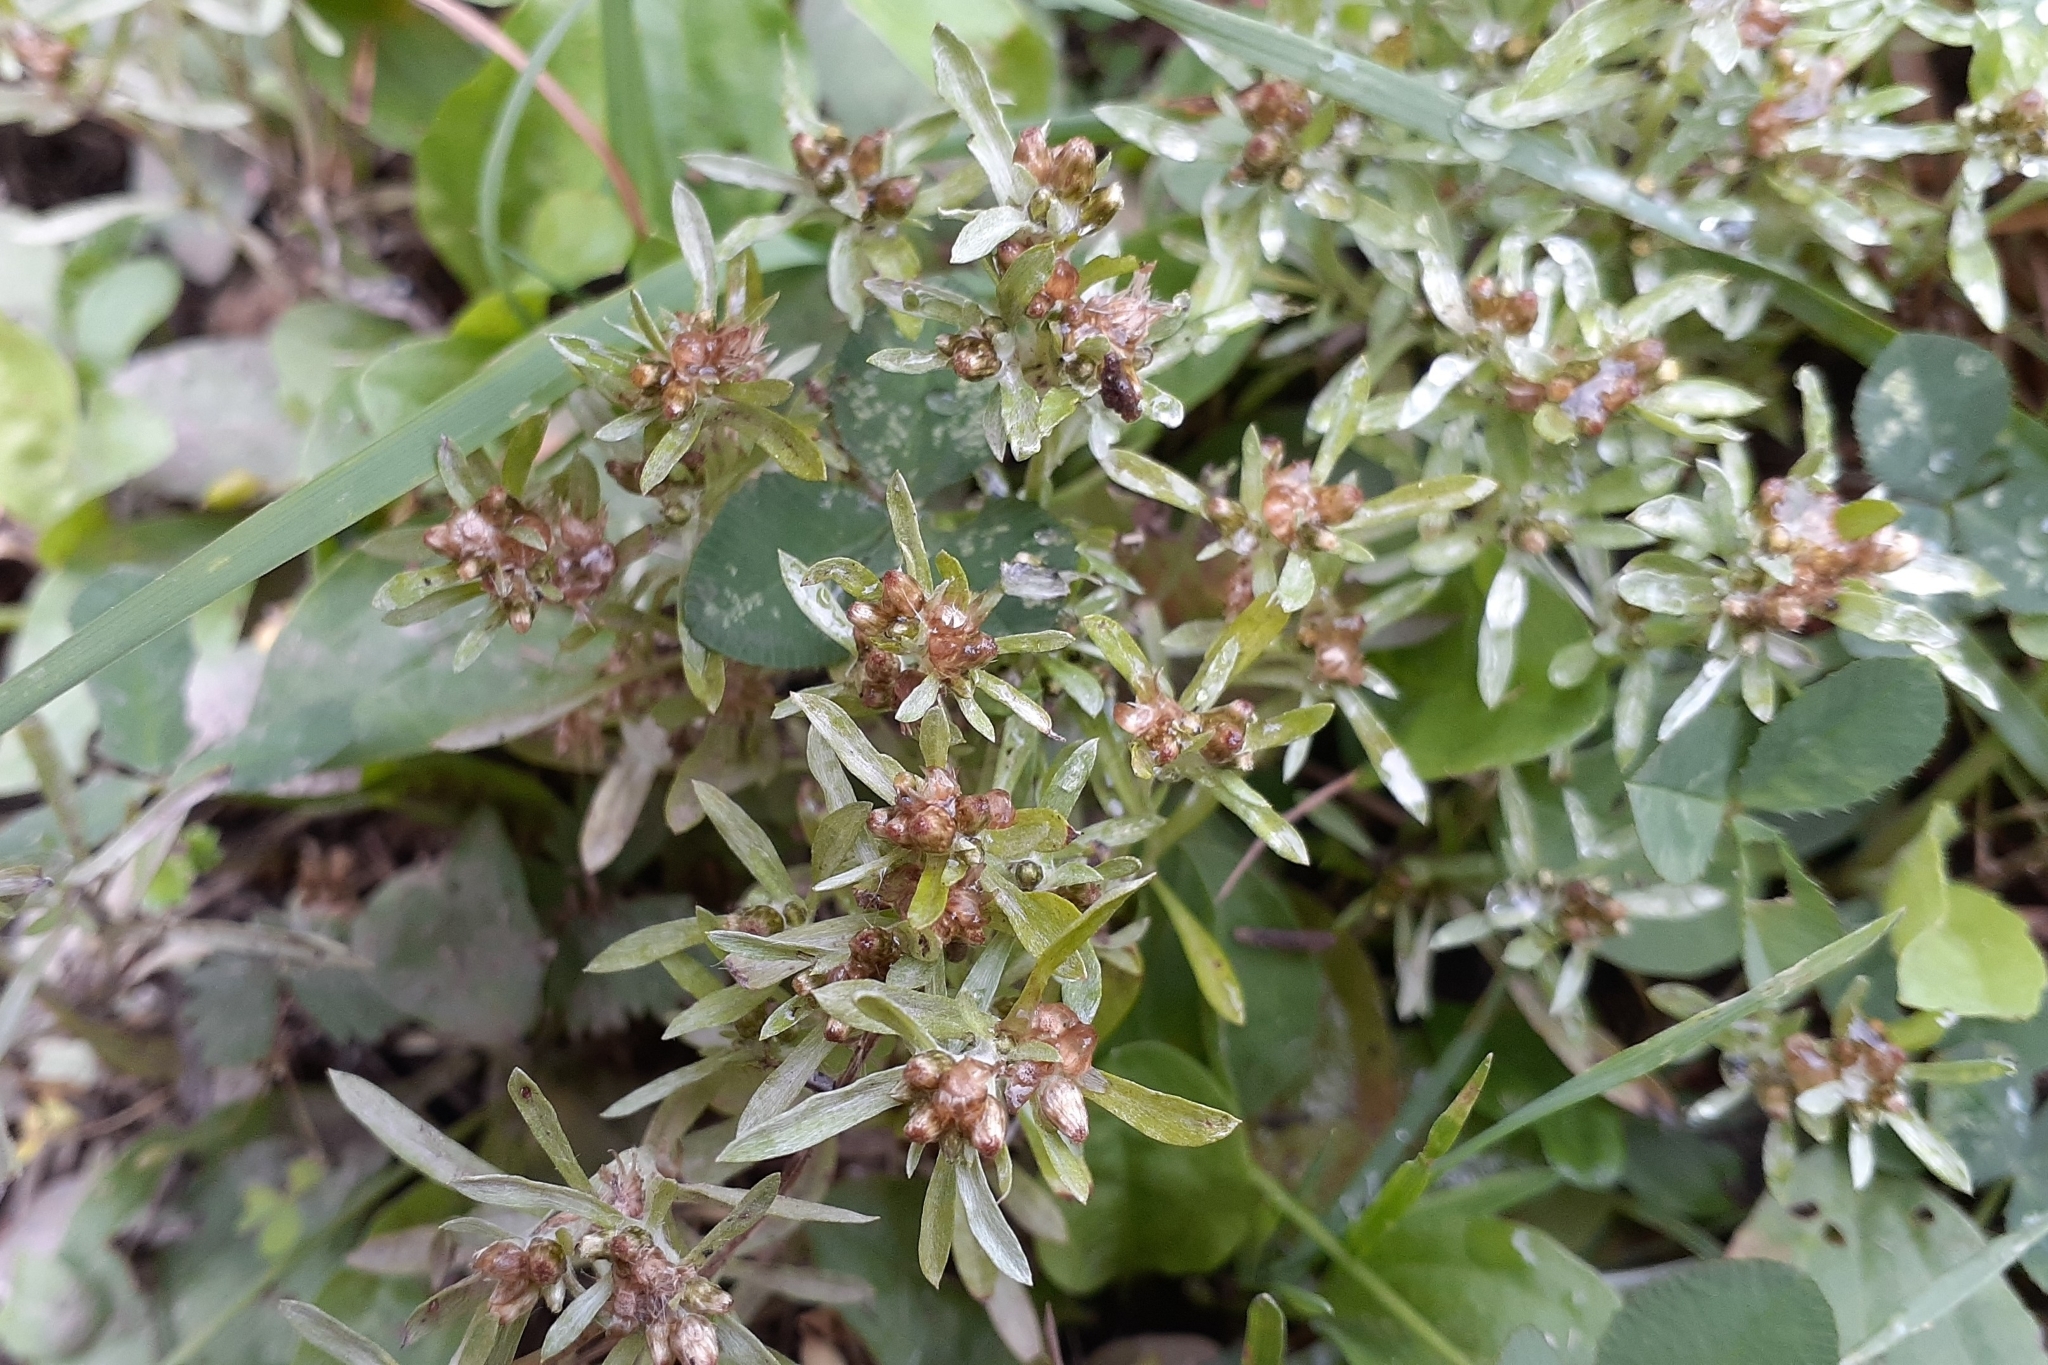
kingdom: Plantae
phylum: Tracheophyta
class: Magnoliopsida
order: Asterales
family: Asteraceae
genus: Gnaphalium
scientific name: Gnaphalium uliginosum
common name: Marsh cudweed
